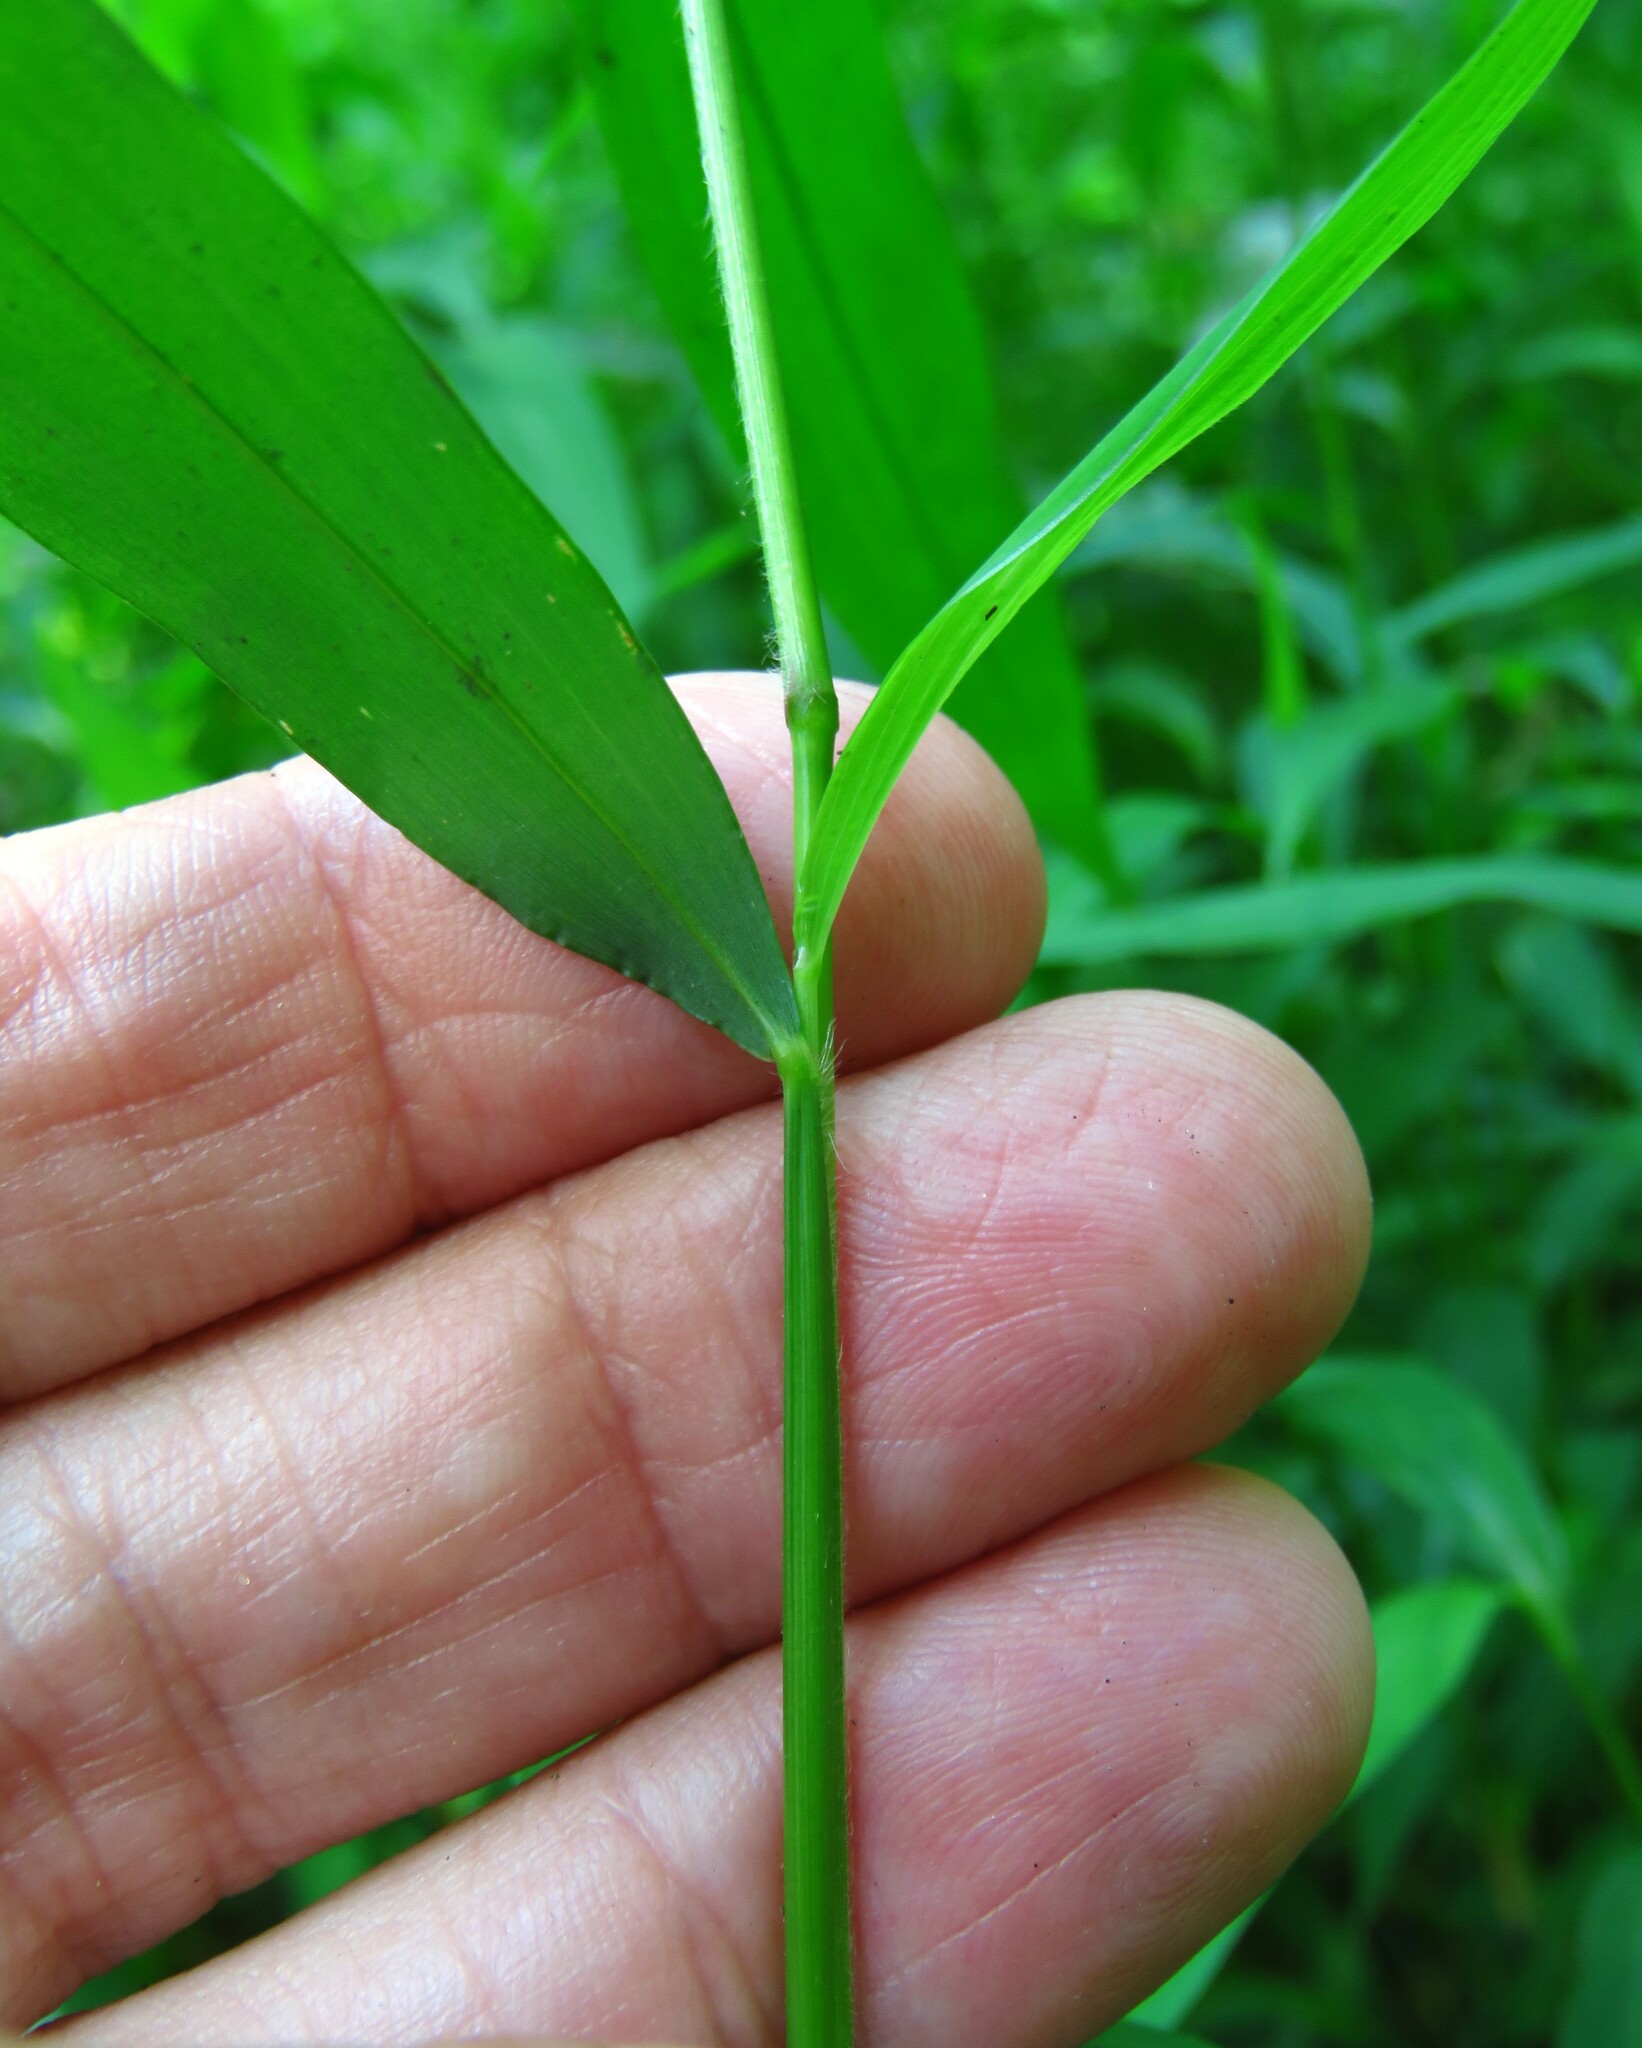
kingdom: Plantae
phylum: Tracheophyta
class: Liliopsida
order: Poales
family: Poaceae
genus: Microstegium
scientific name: Microstegium vimineum
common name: Japanese stiltgrass
